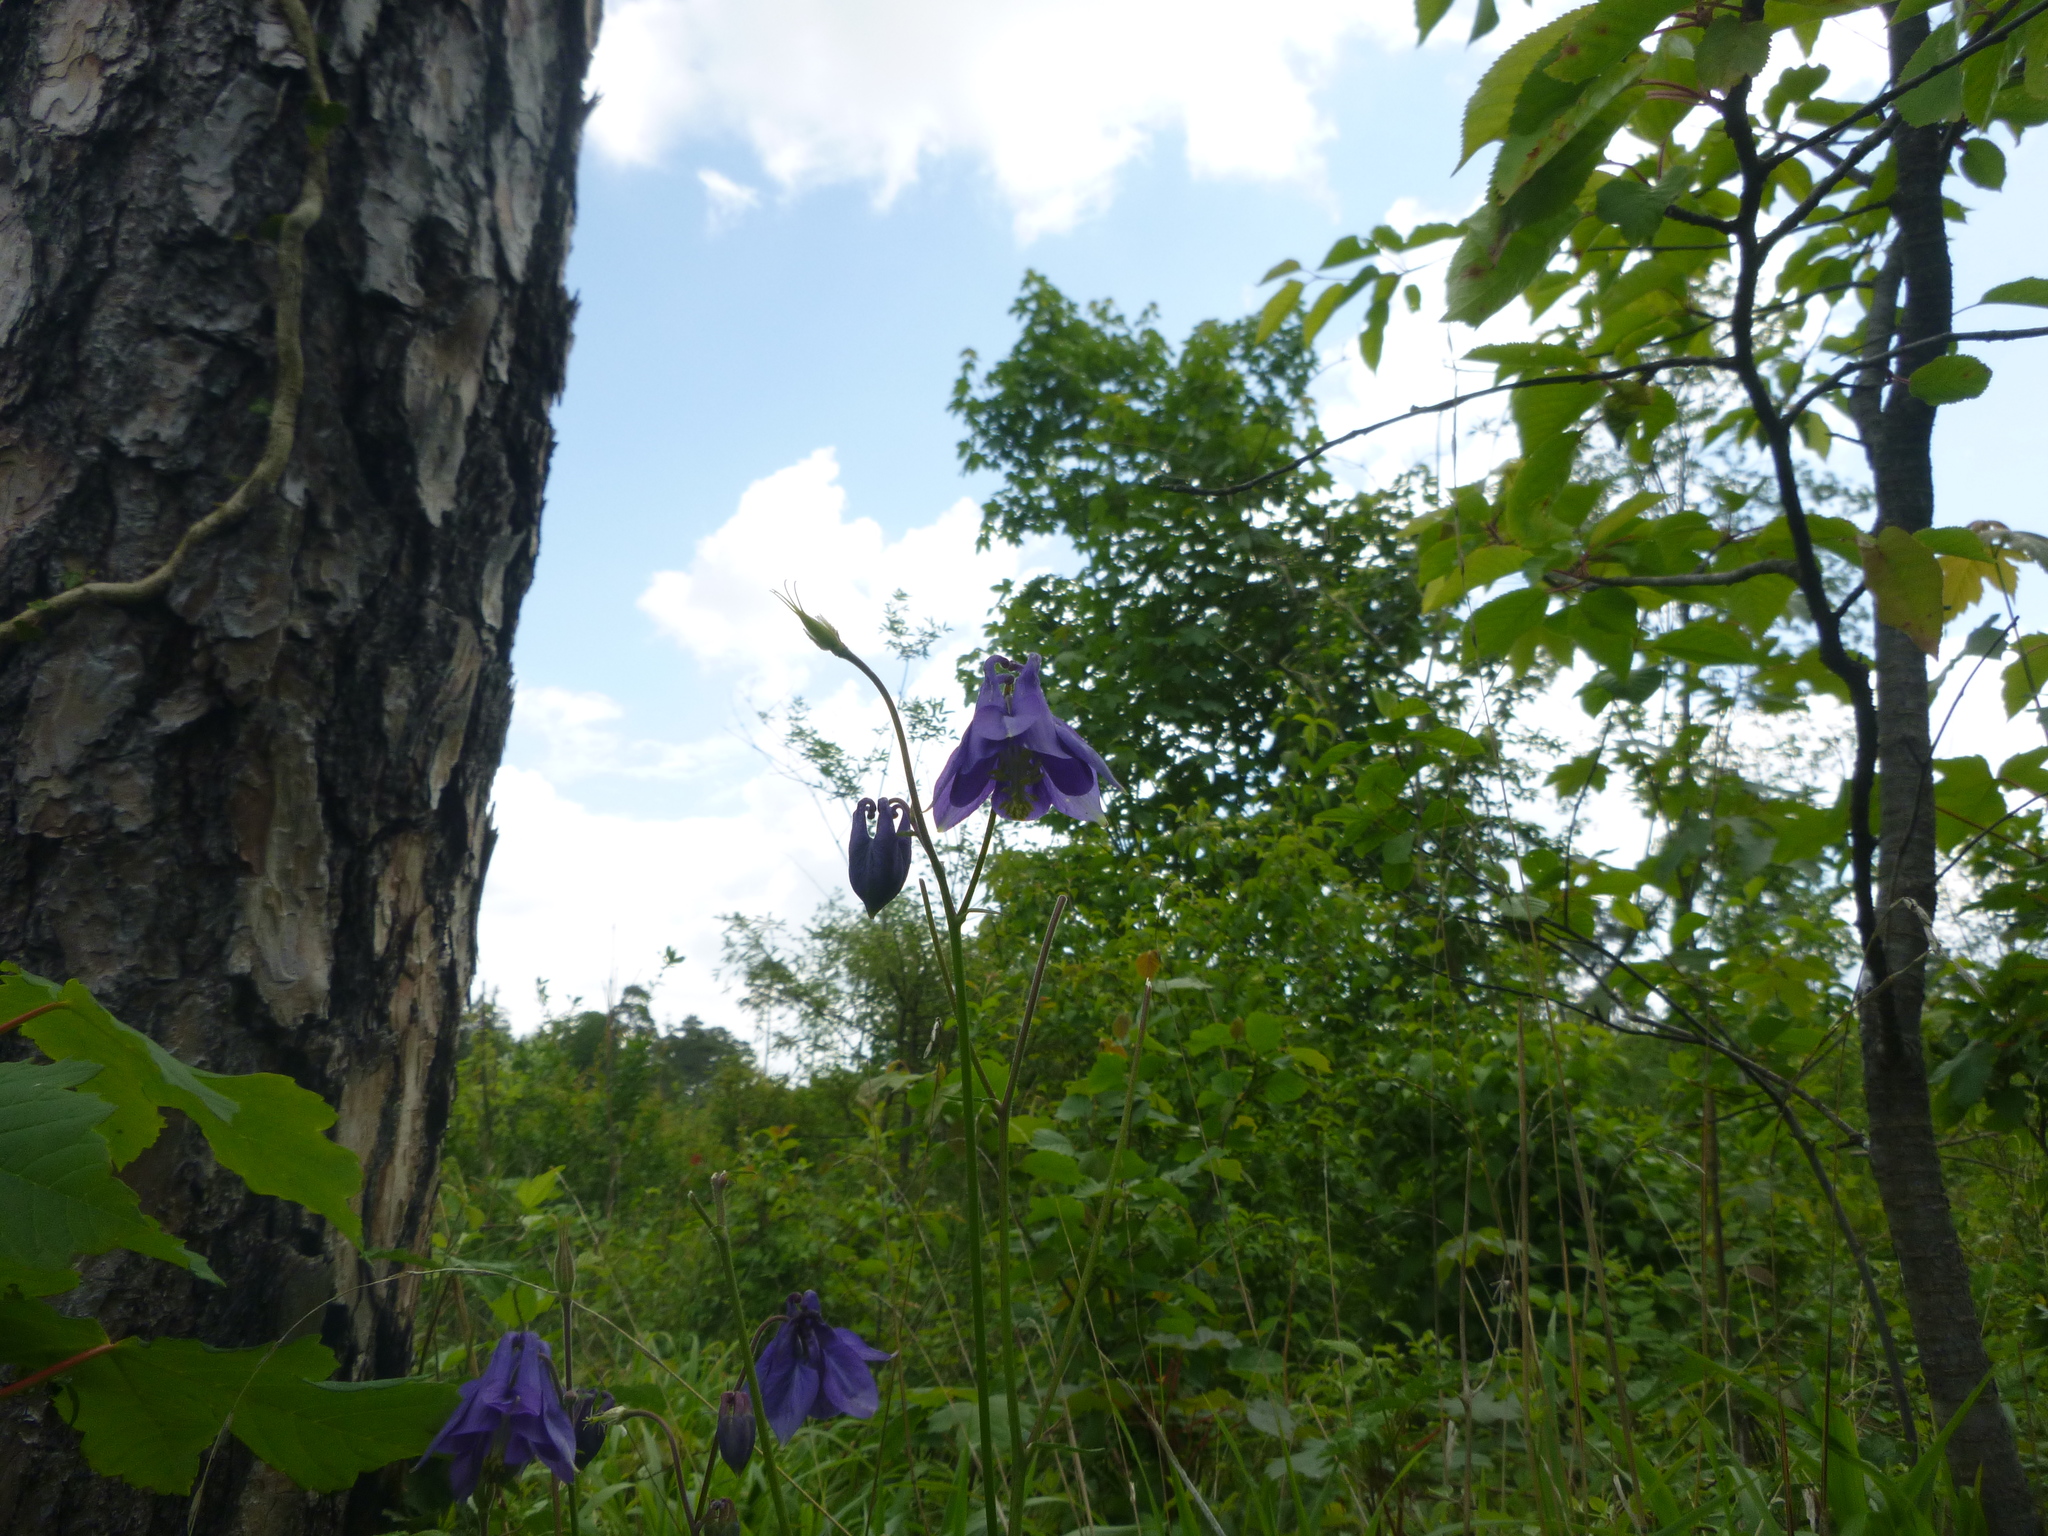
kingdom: Plantae
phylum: Tracheophyta
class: Magnoliopsida
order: Ranunculales
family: Ranunculaceae
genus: Aquilegia
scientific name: Aquilegia vulgaris
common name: Columbine
